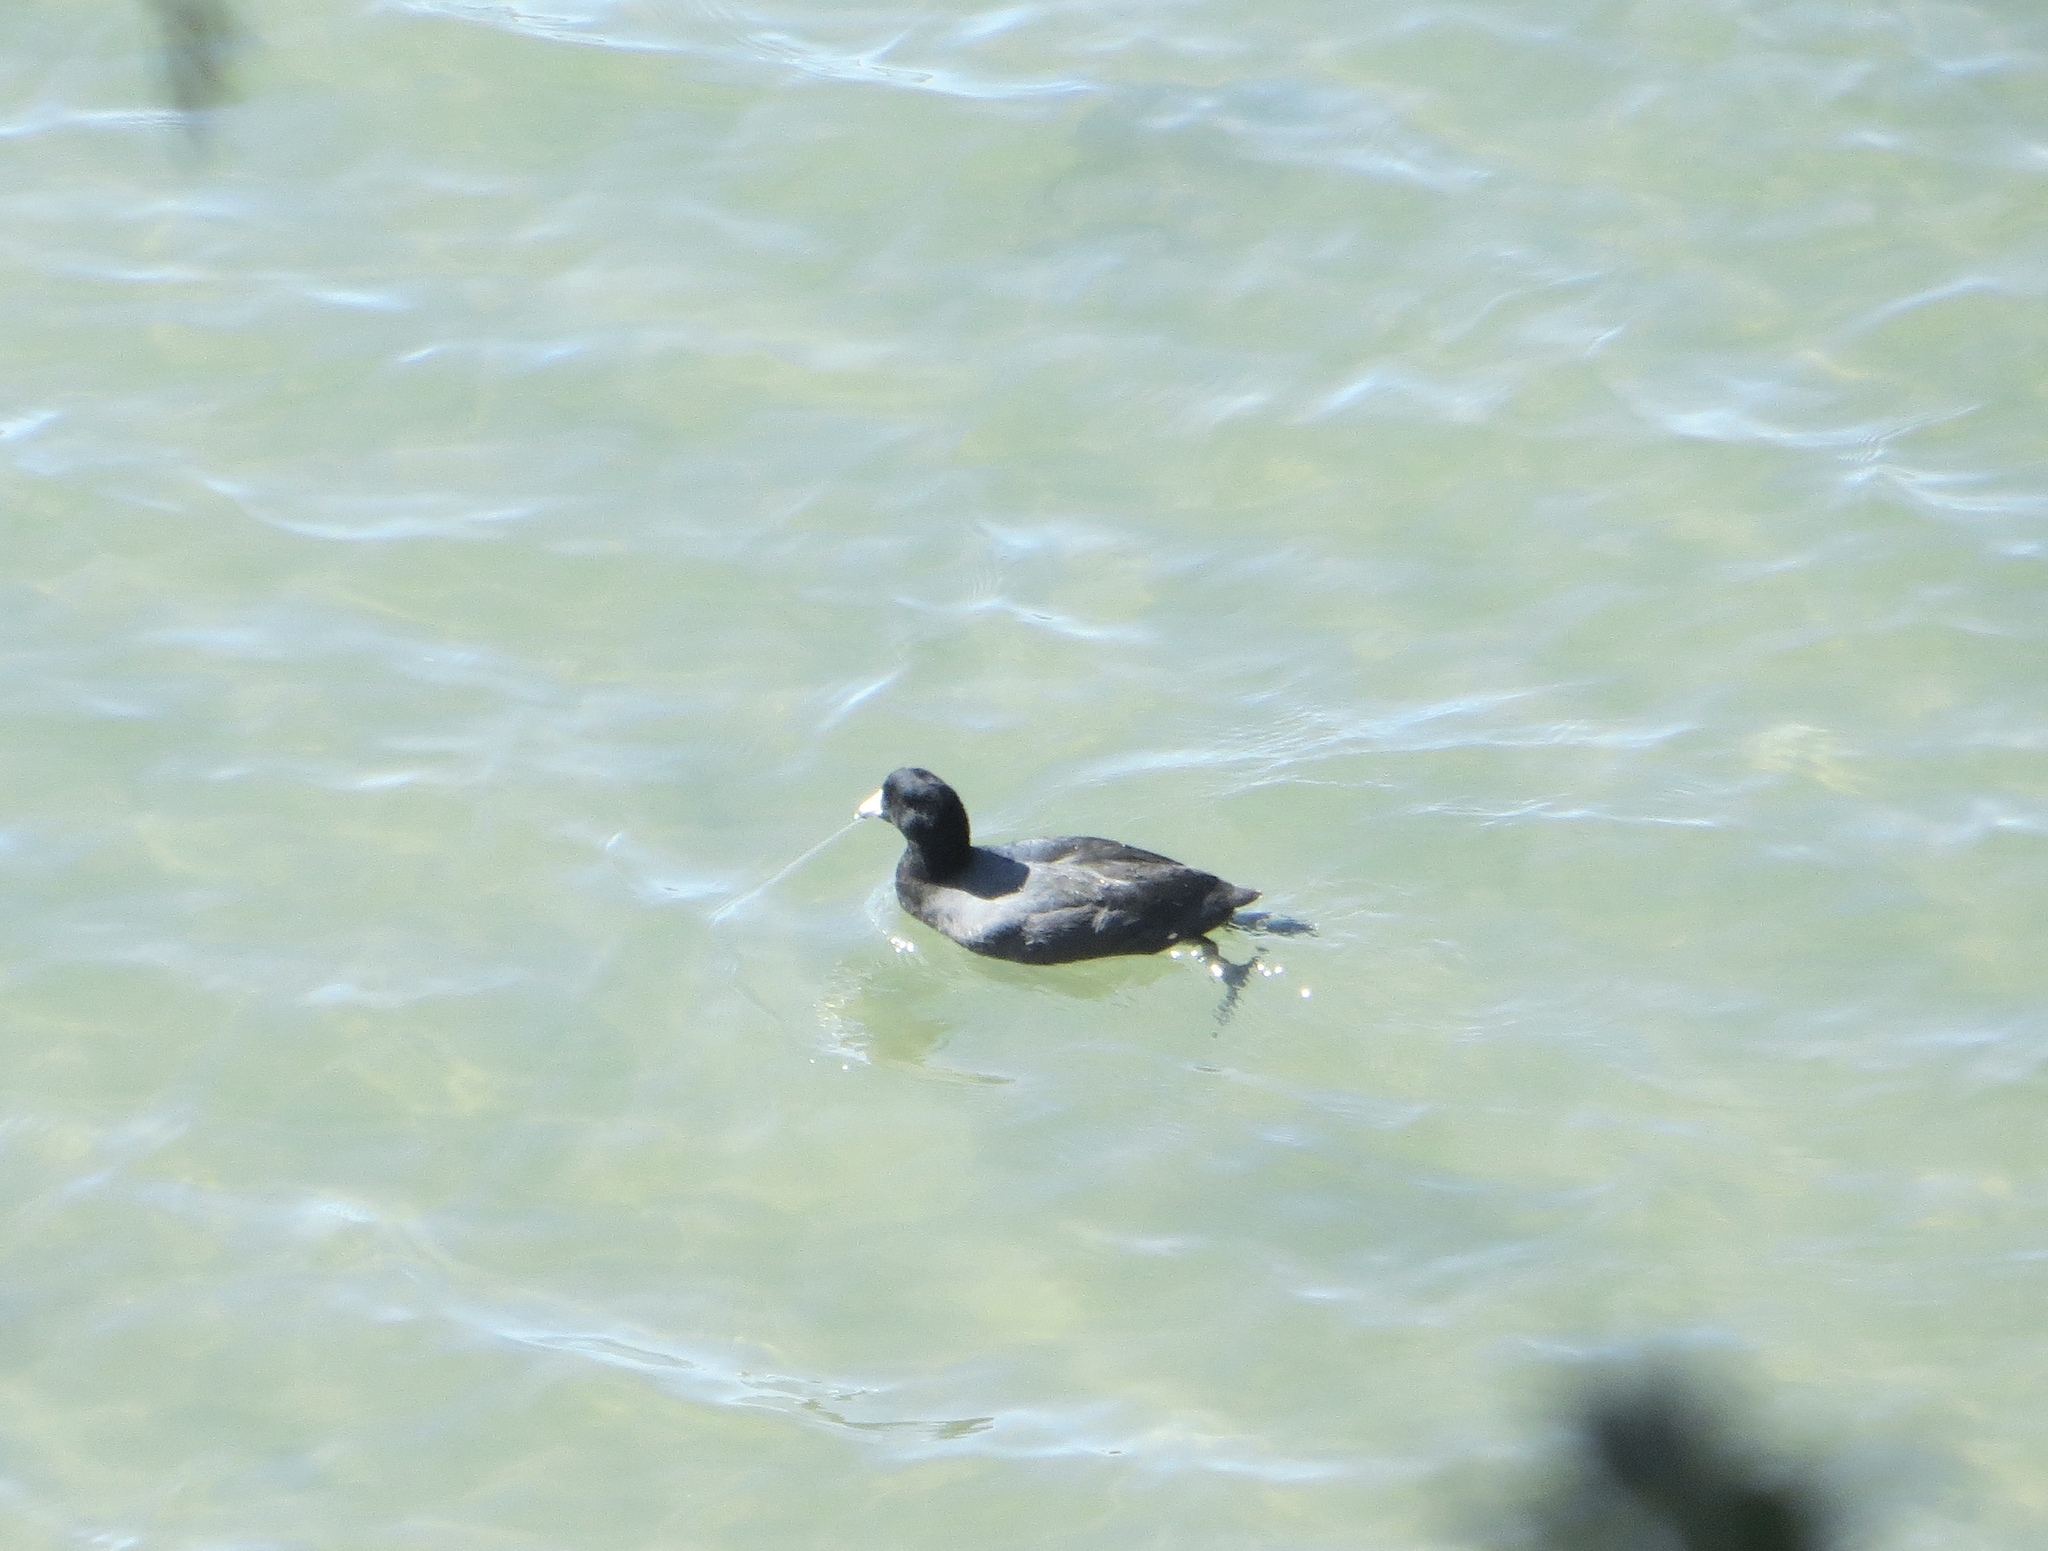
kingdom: Animalia
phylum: Chordata
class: Aves
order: Gruiformes
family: Rallidae
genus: Fulica
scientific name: Fulica americana
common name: American coot
